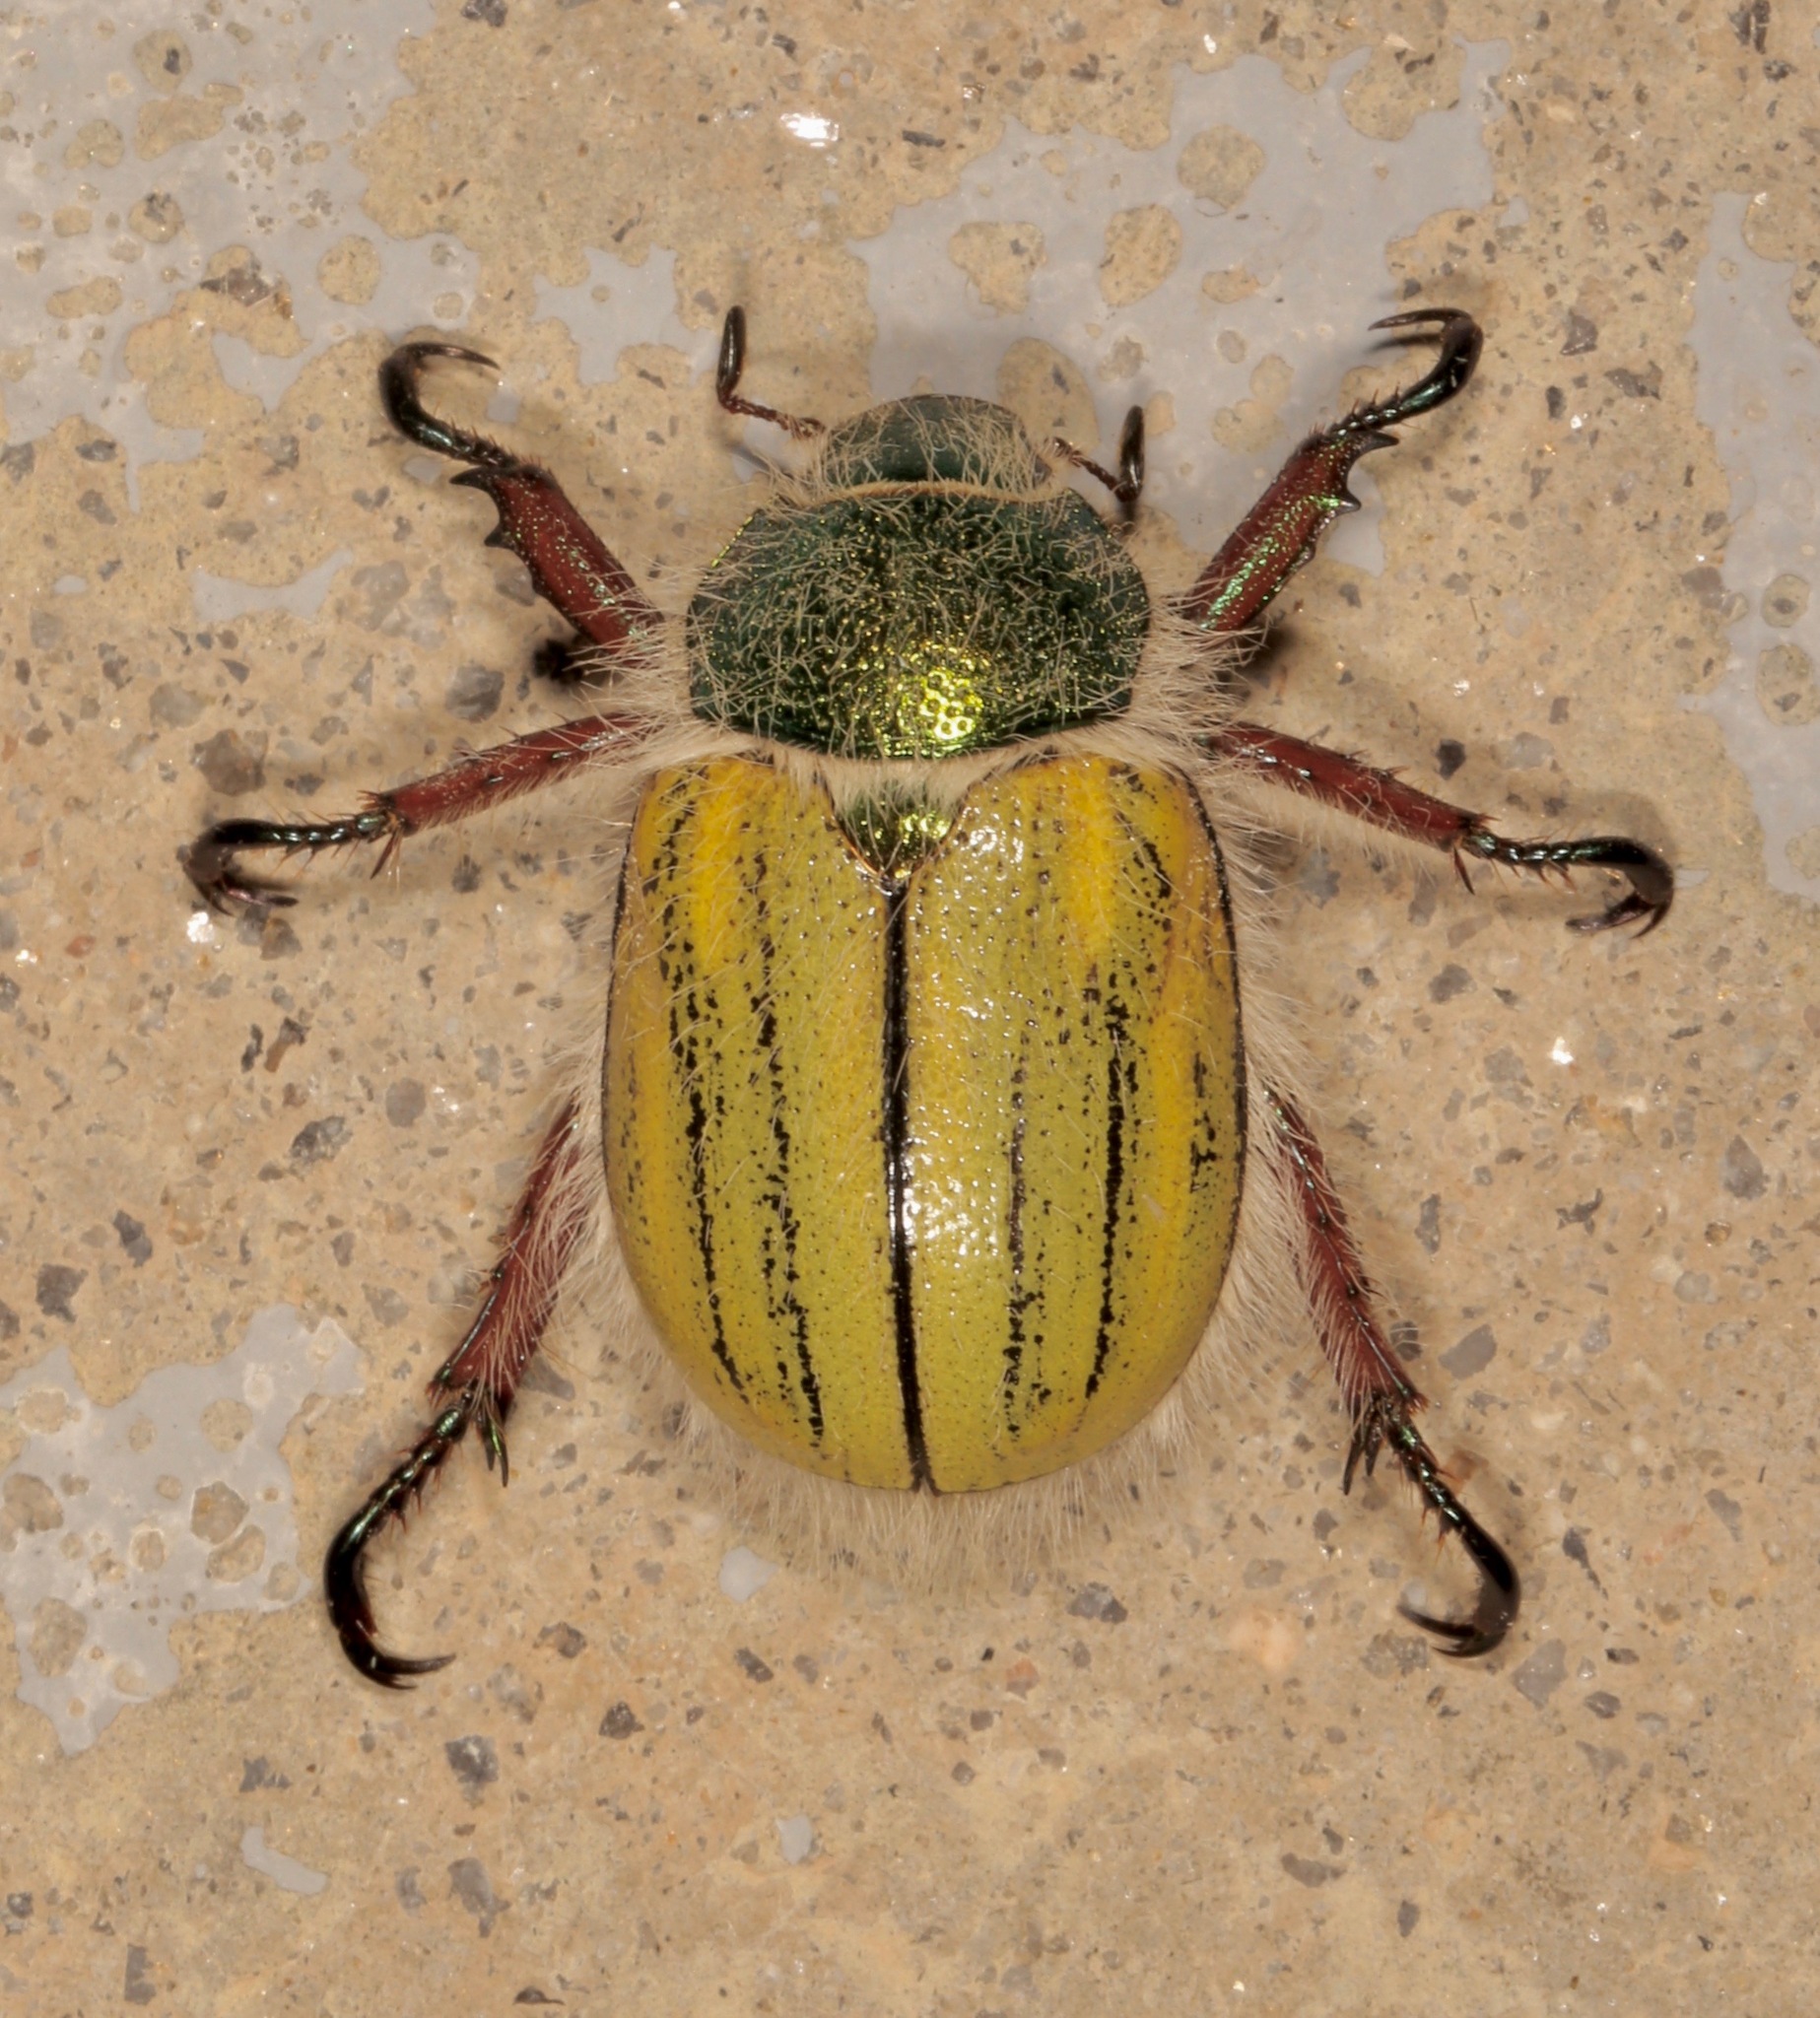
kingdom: Animalia
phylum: Arthropoda
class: Insecta
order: Coleoptera
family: Scarabaeidae
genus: Paracotalpa
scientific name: Paracotalpa puncticollis
